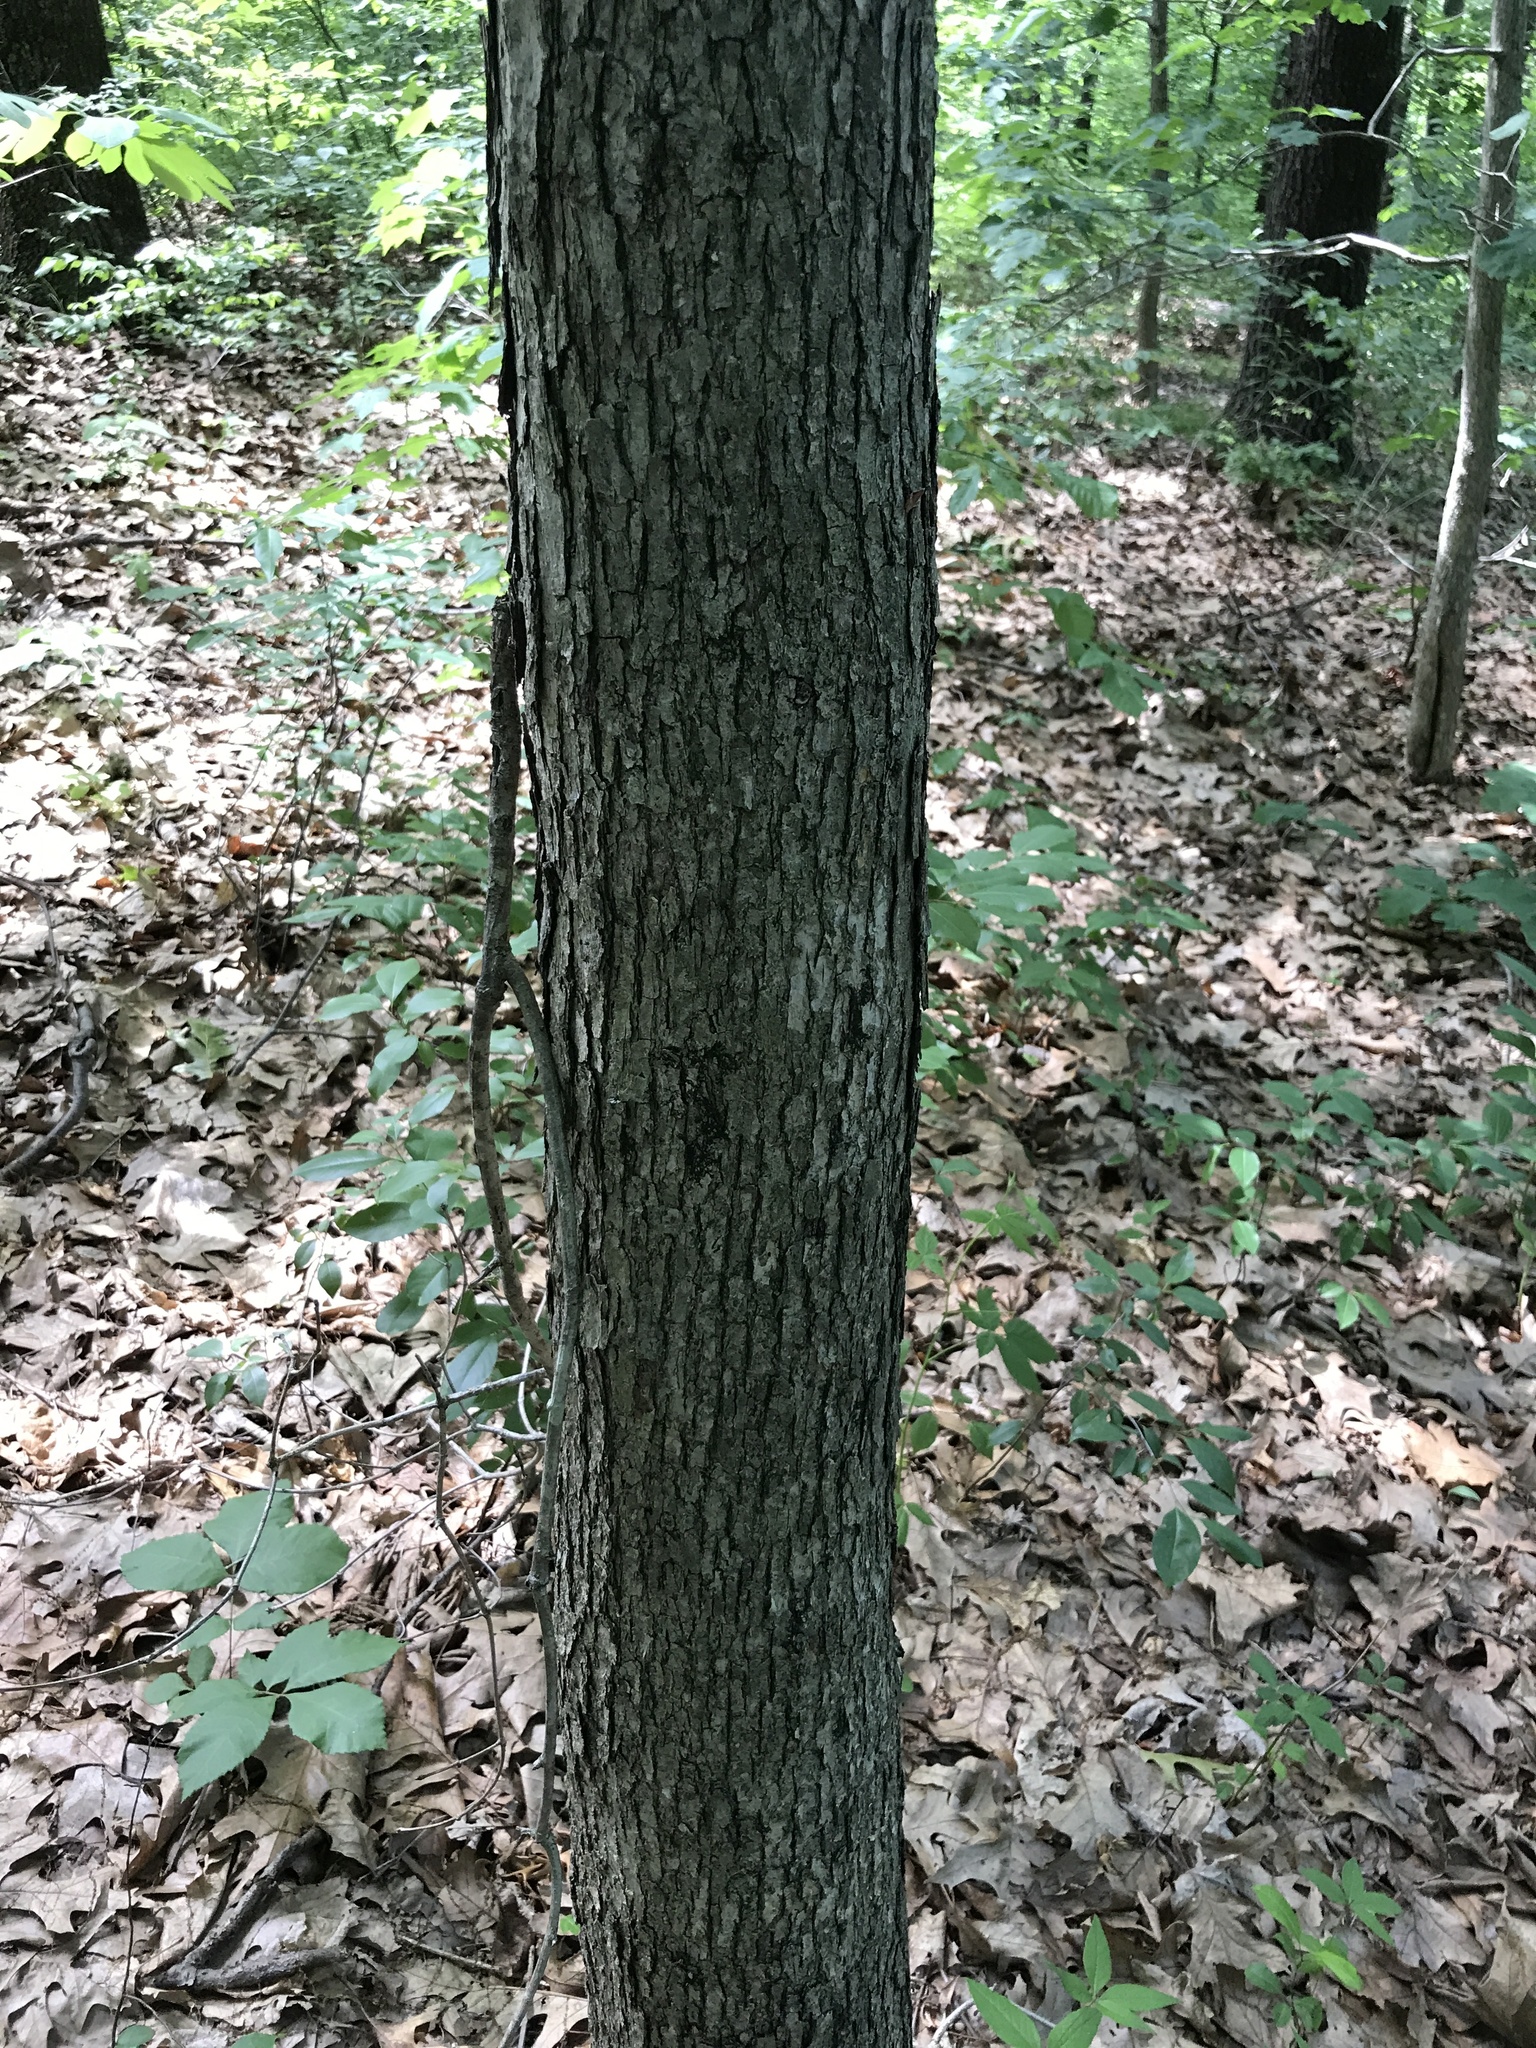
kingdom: Plantae
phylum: Tracheophyta
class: Magnoliopsida
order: Fagales
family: Fagaceae
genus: Quercus
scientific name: Quercus alba
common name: White oak
